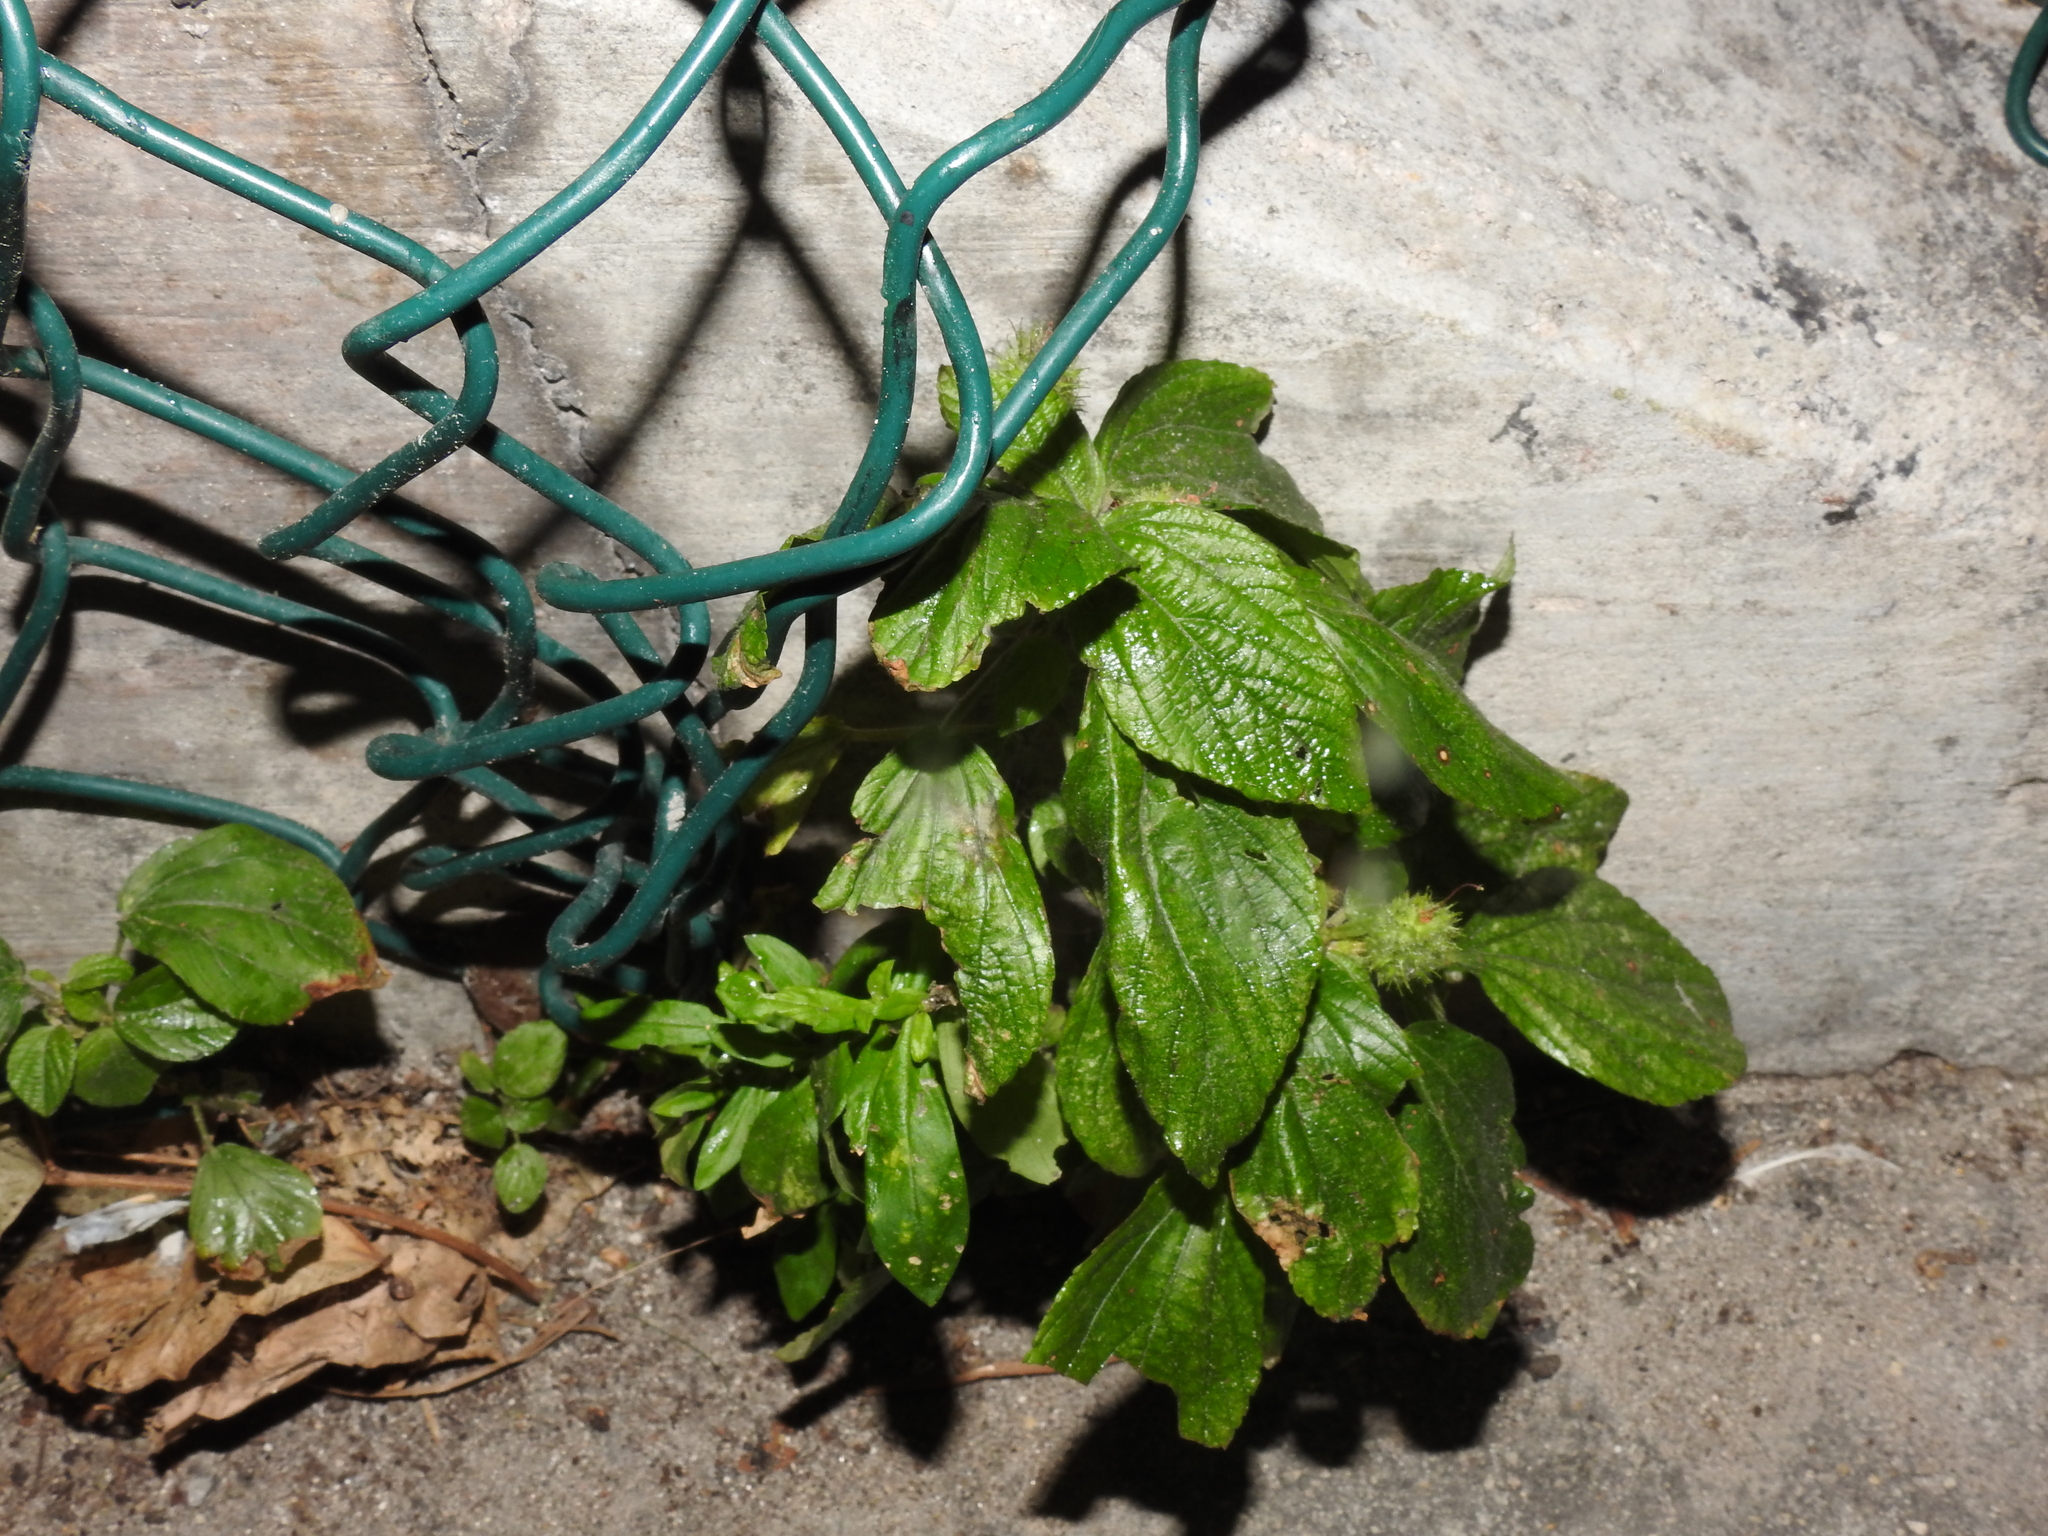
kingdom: Plantae
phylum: Tracheophyta
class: Magnoliopsida
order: Malpighiales
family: Euphorbiaceae
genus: Acalypha
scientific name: Acalypha arvensis
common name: Field copperleaf
